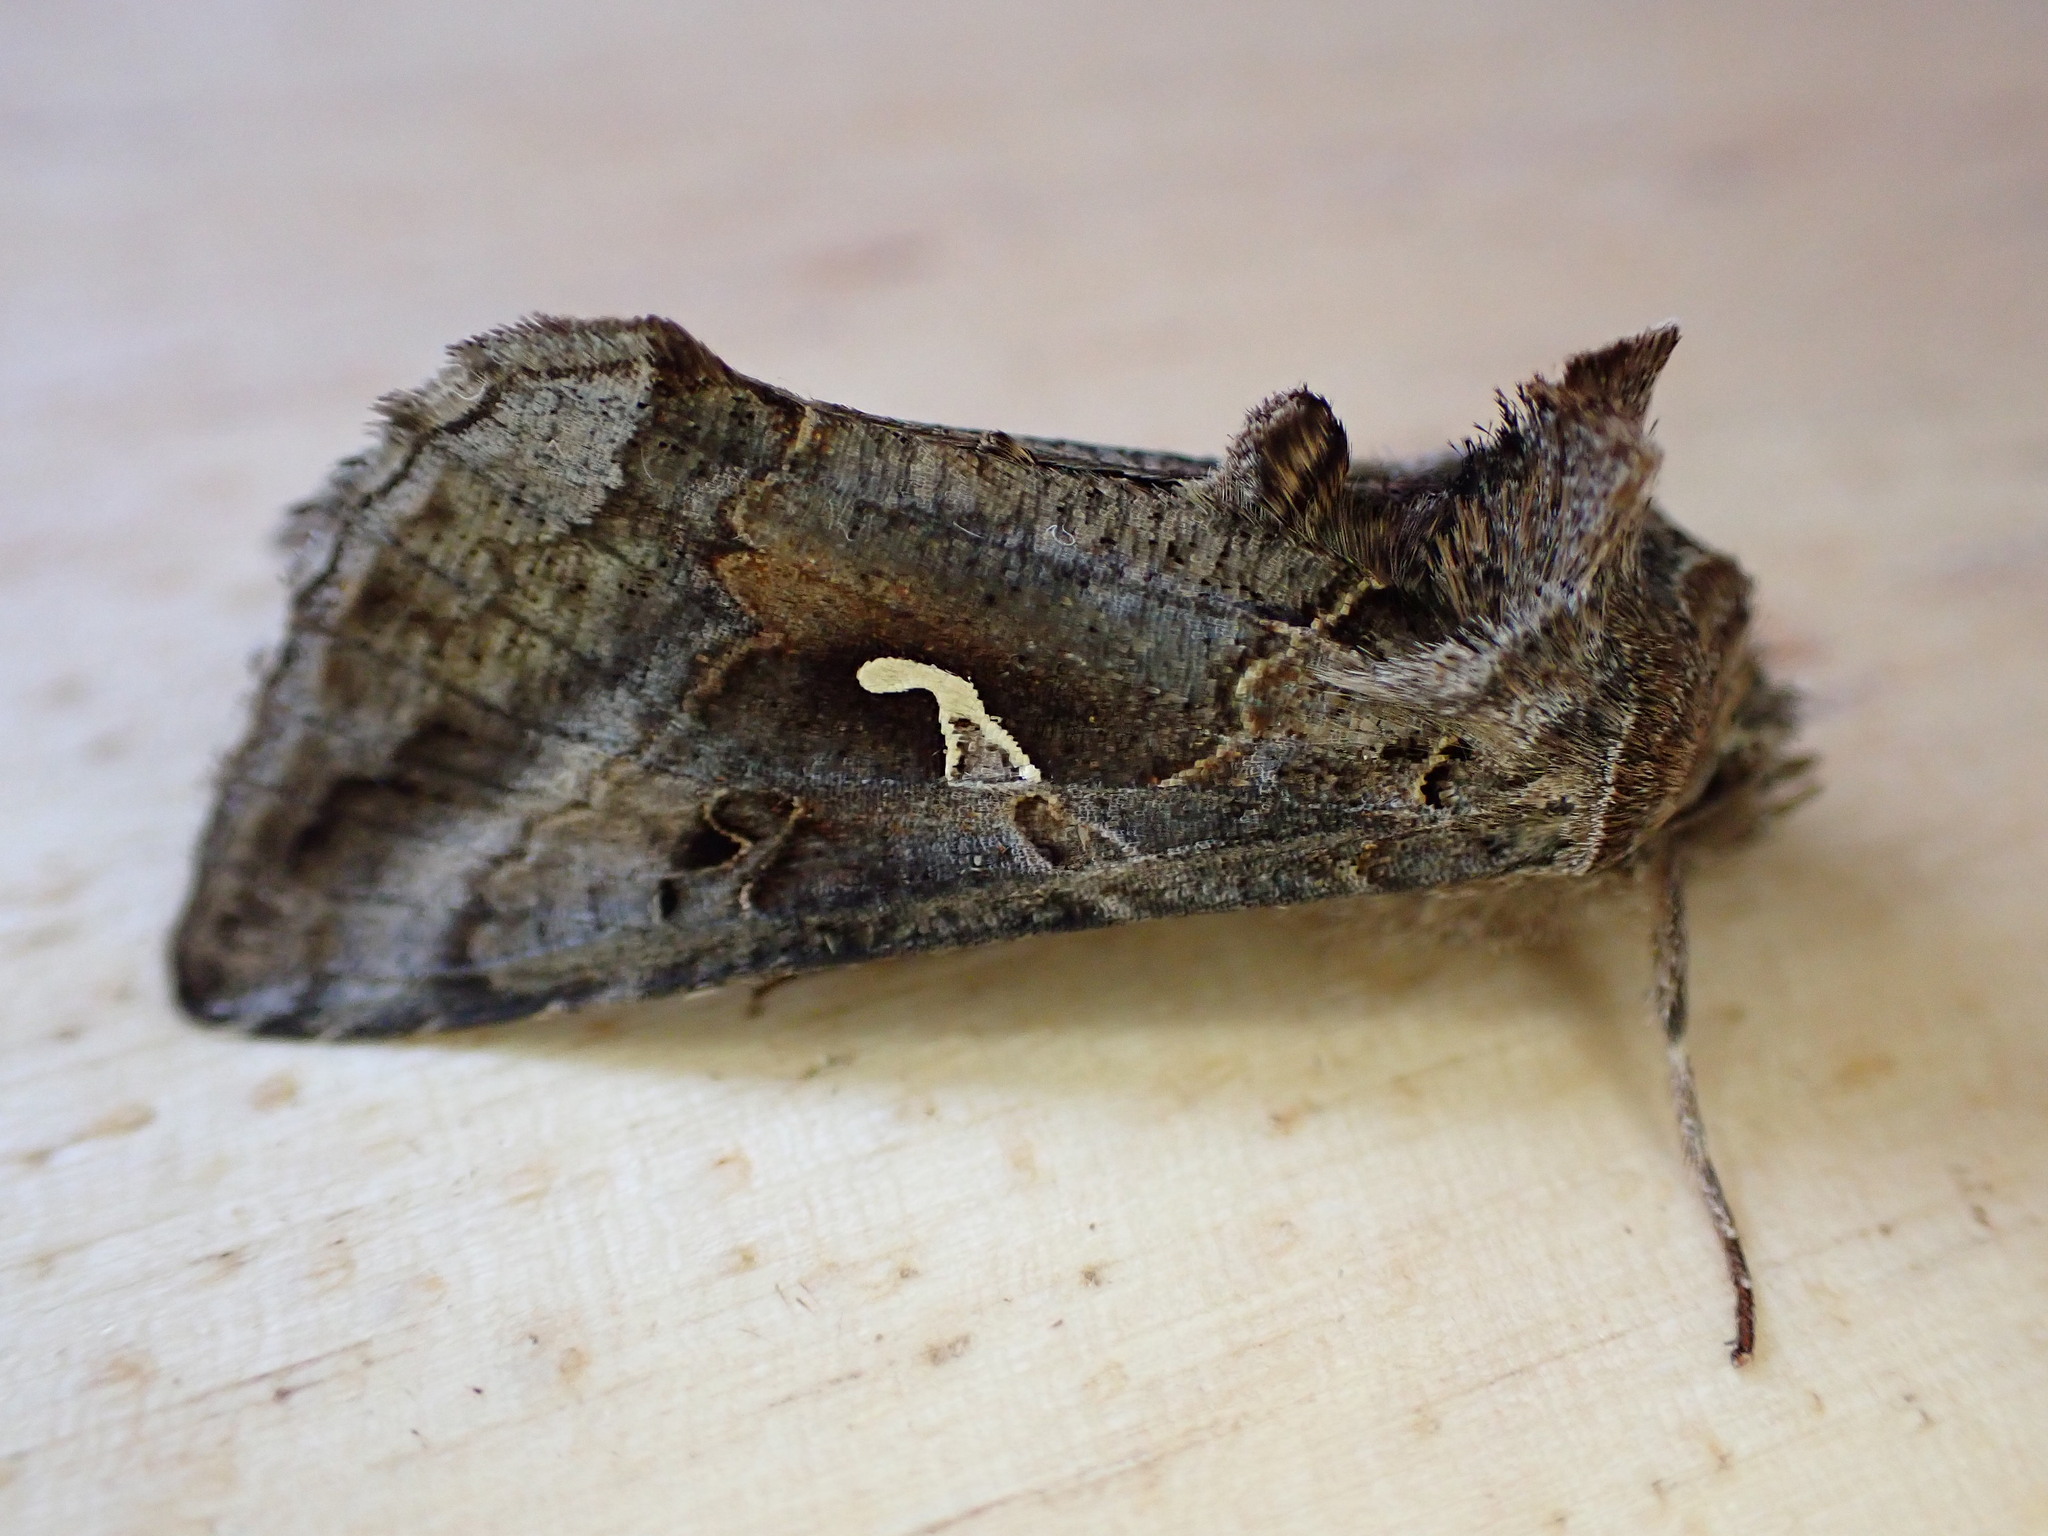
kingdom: Animalia
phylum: Arthropoda
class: Insecta
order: Lepidoptera
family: Noctuidae
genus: Autographa
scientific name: Autographa gamma
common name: Silver y
